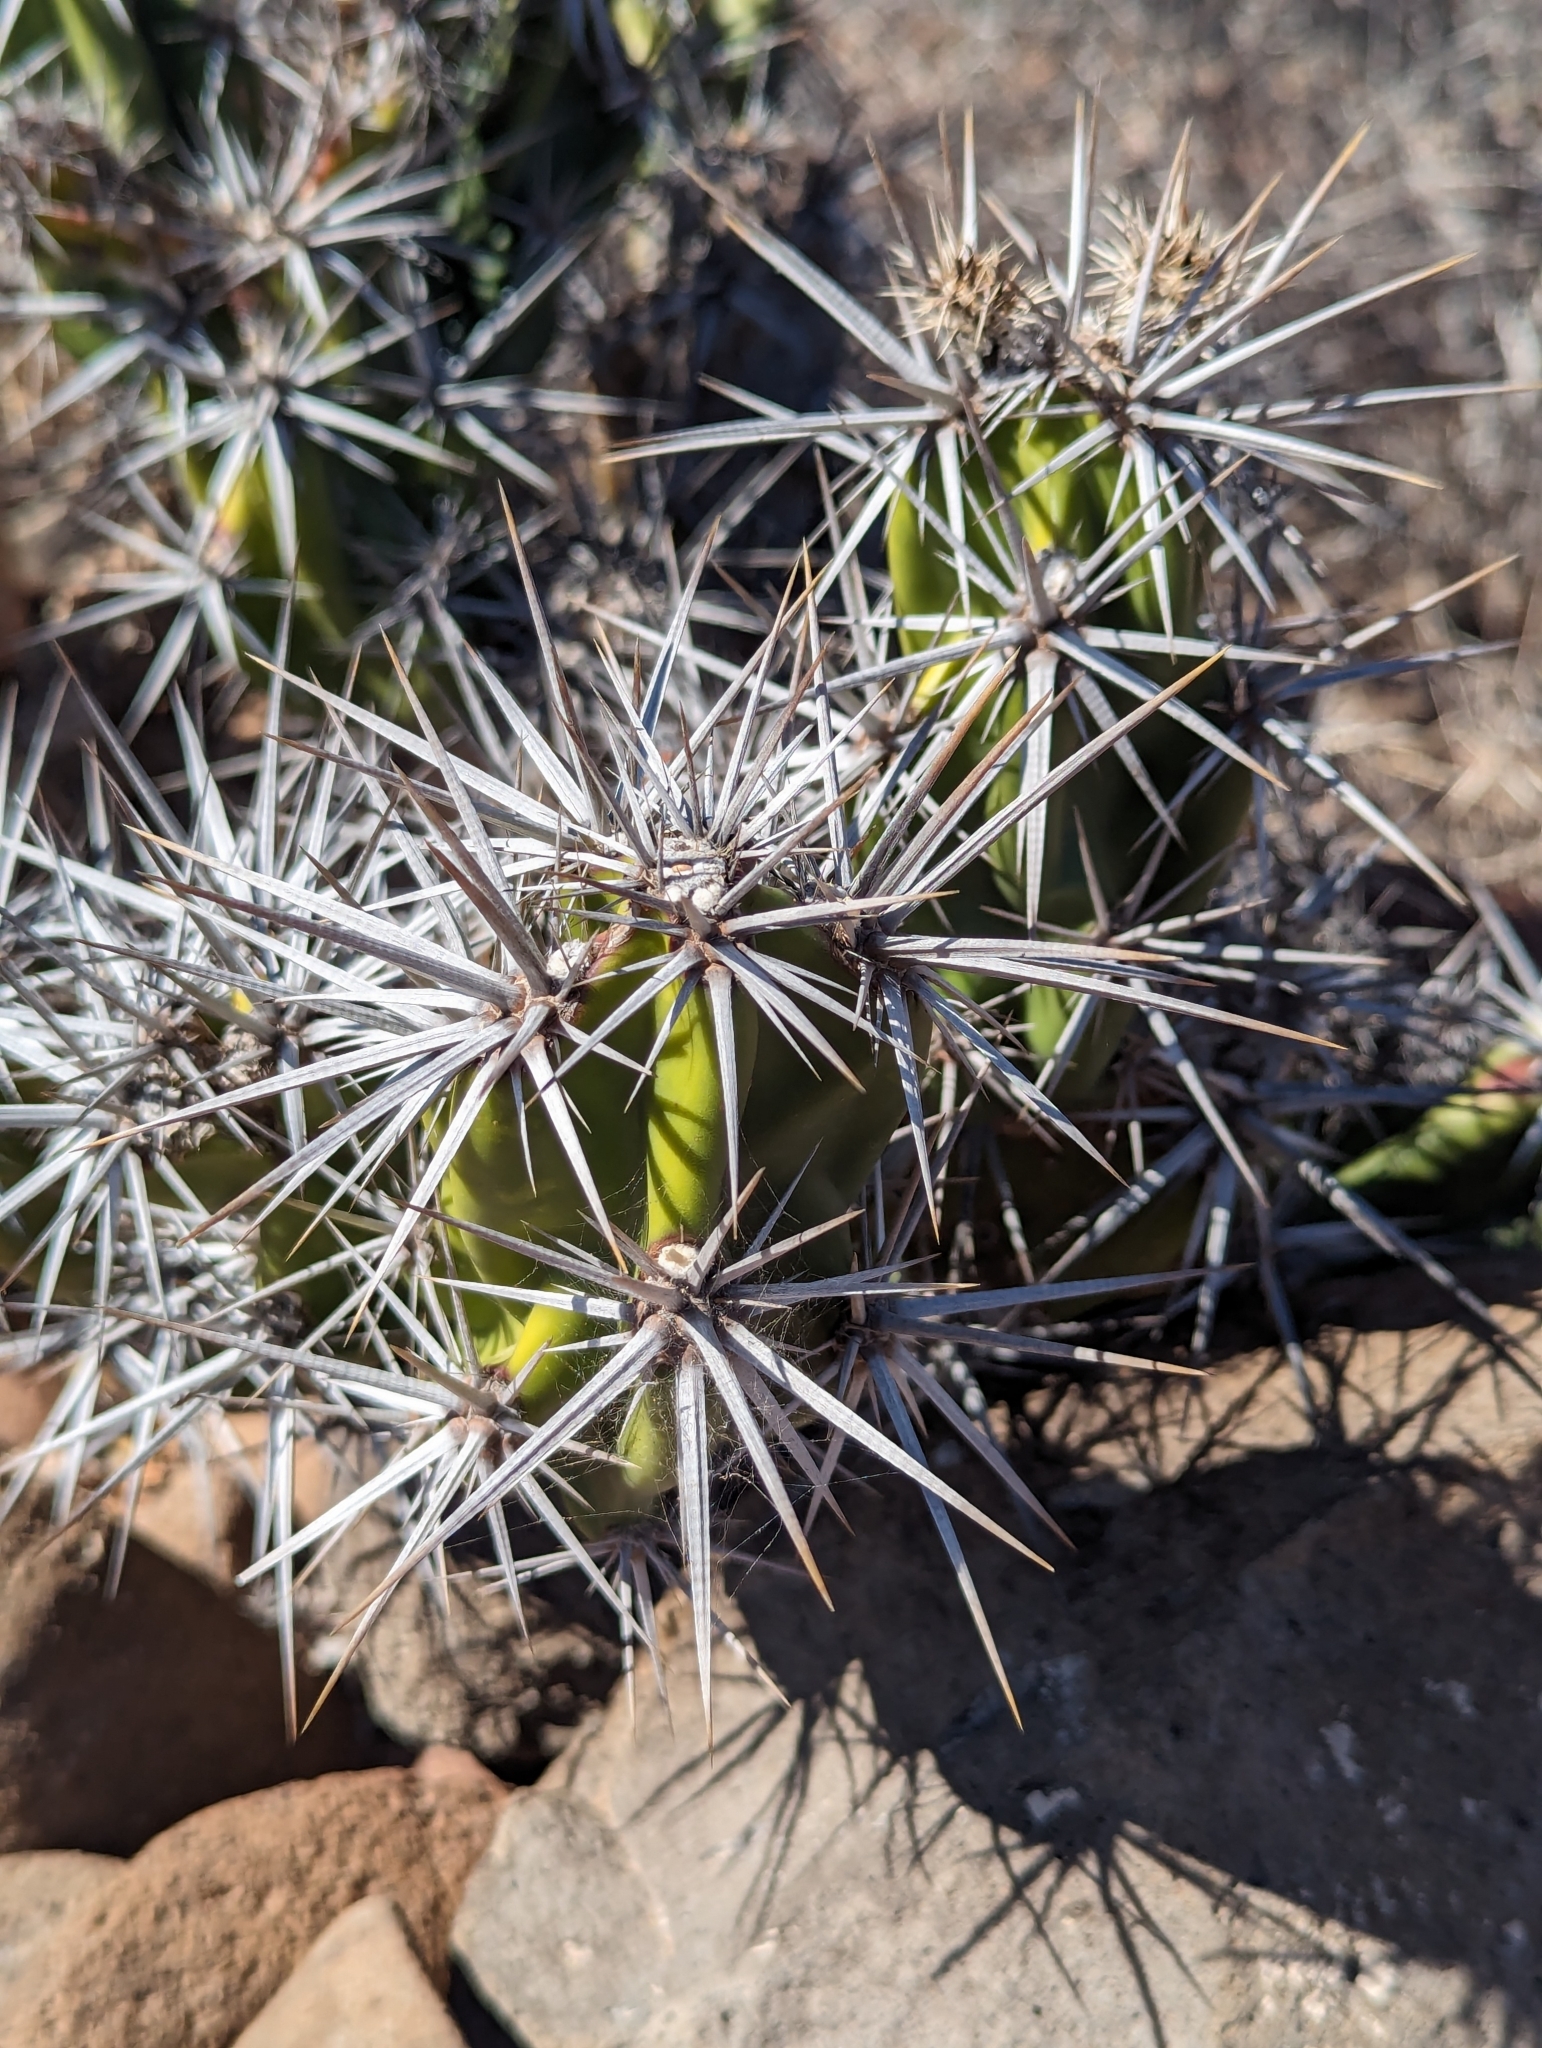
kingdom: Plantae
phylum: Tracheophyta
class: Magnoliopsida
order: Caryophyllales
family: Cactaceae
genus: Grusonia
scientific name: Grusonia invicta
